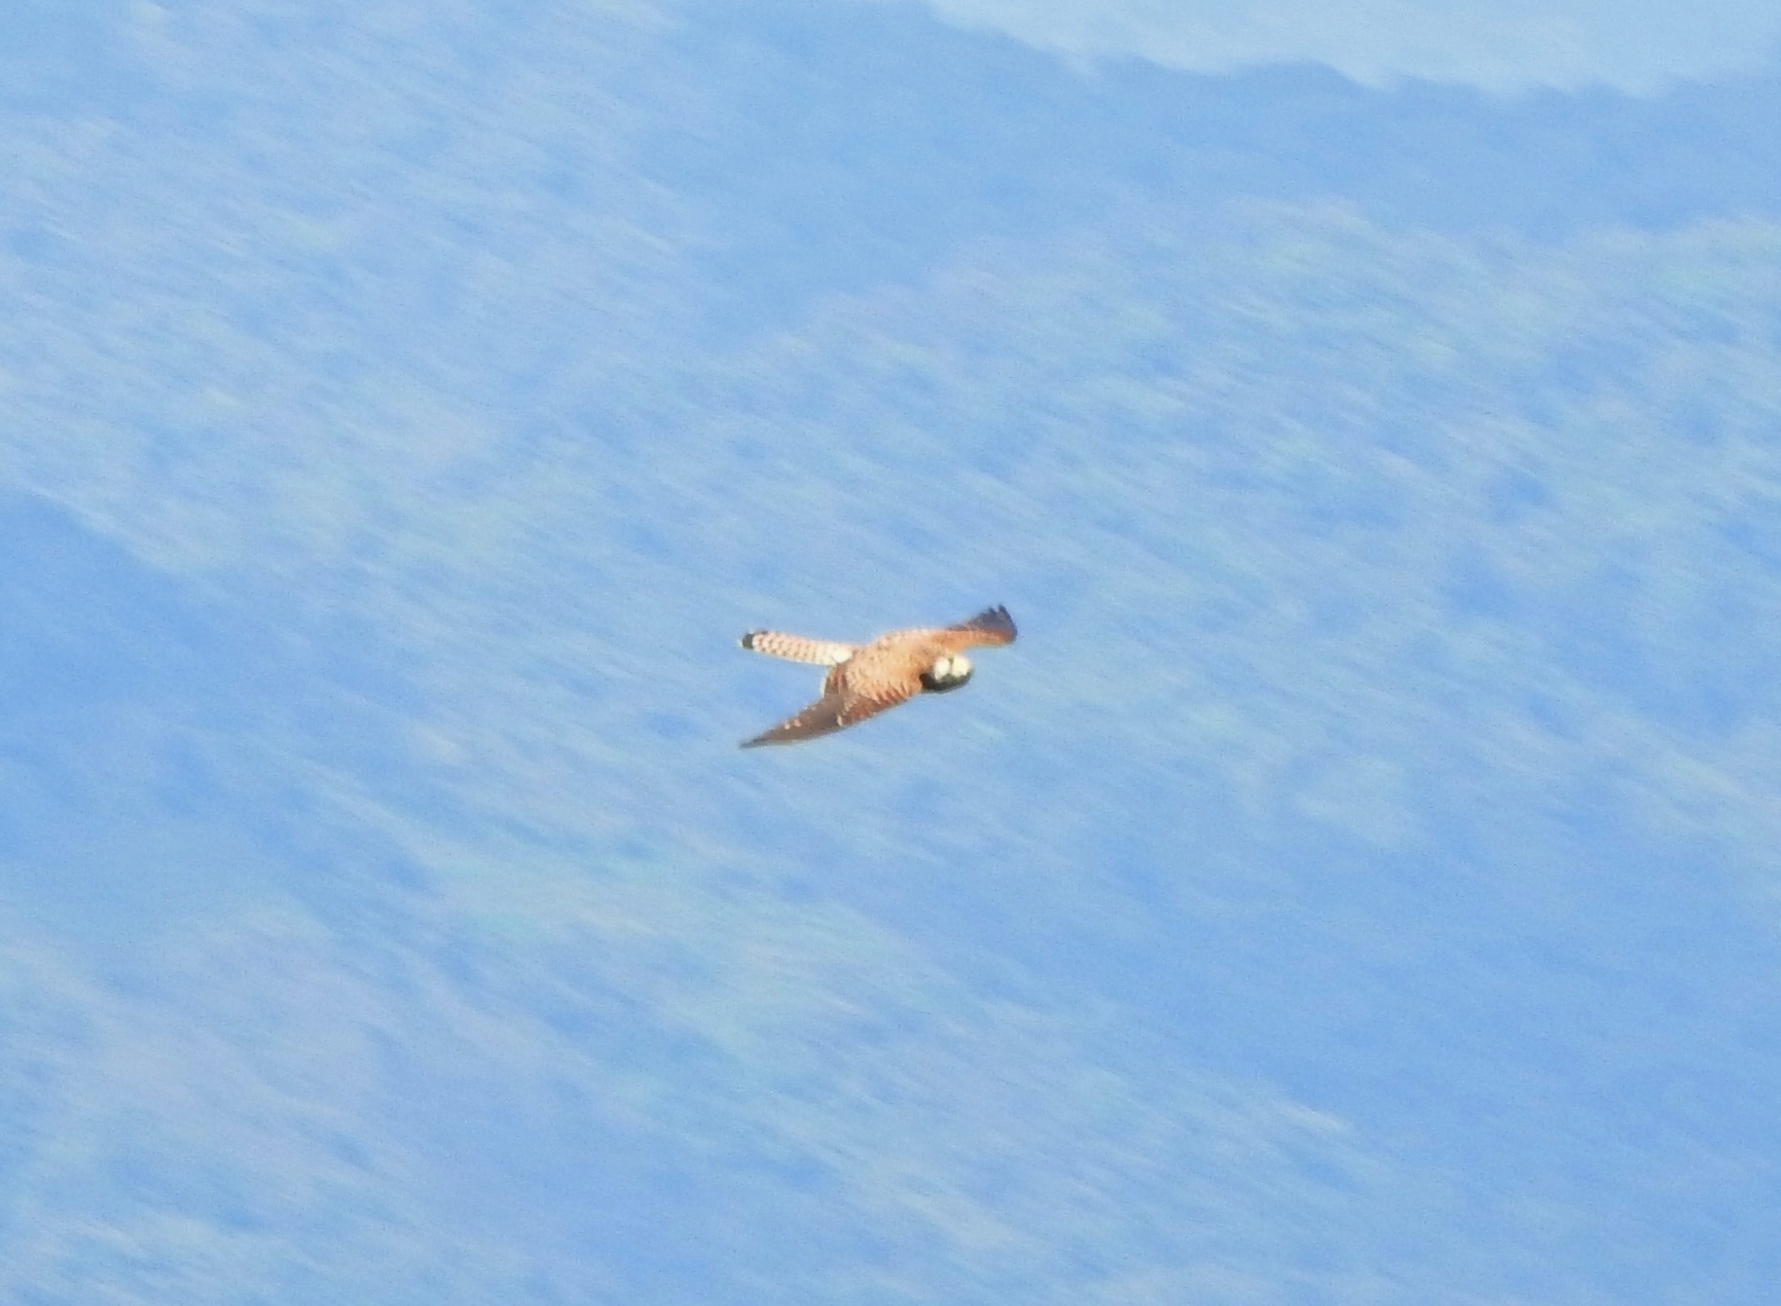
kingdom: Animalia
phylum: Chordata
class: Aves
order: Falconiformes
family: Falconidae
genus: Falco
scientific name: Falco tinnunculus
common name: Common kestrel
